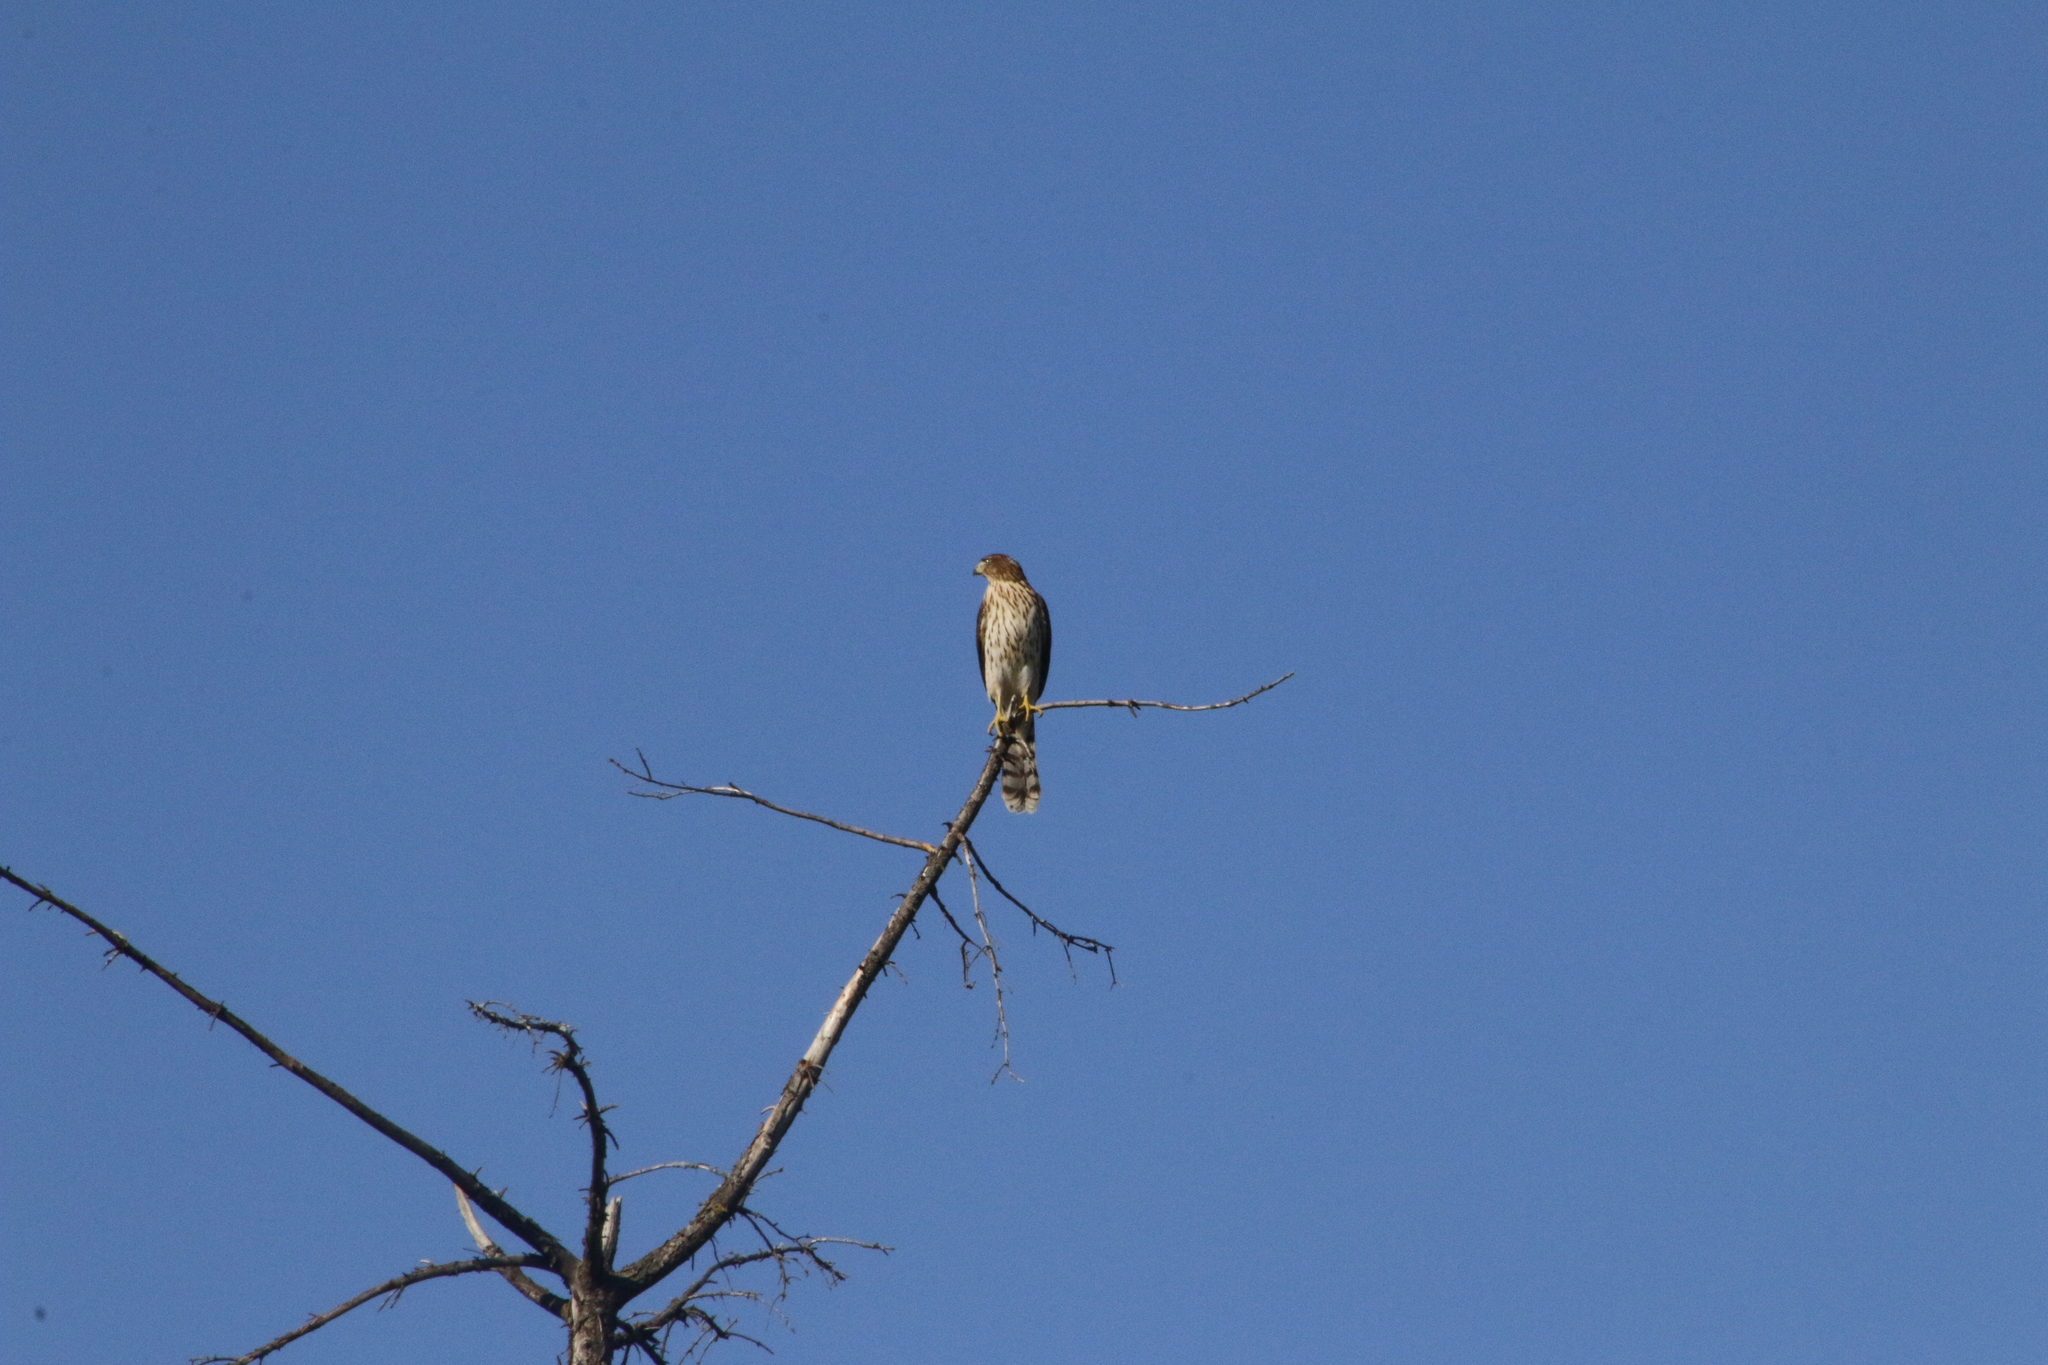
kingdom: Animalia
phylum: Chordata
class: Aves
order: Accipitriformes
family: Accipitridae
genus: Accipiter
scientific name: Accipiter cooperii
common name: Cooper's hawk
